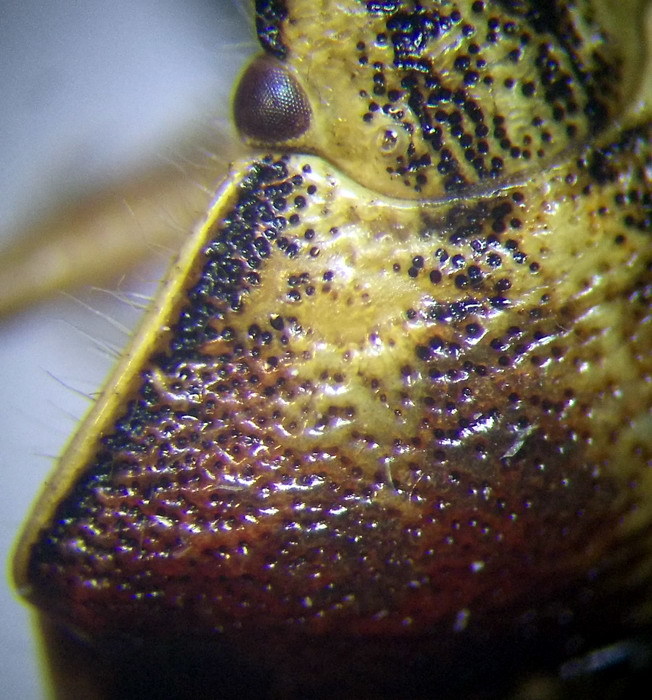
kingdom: Animalia
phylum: Arthropoda
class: Insecta
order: Hemiptera
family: Pentatomidae
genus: Antheminia
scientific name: Antheminia varicornis
